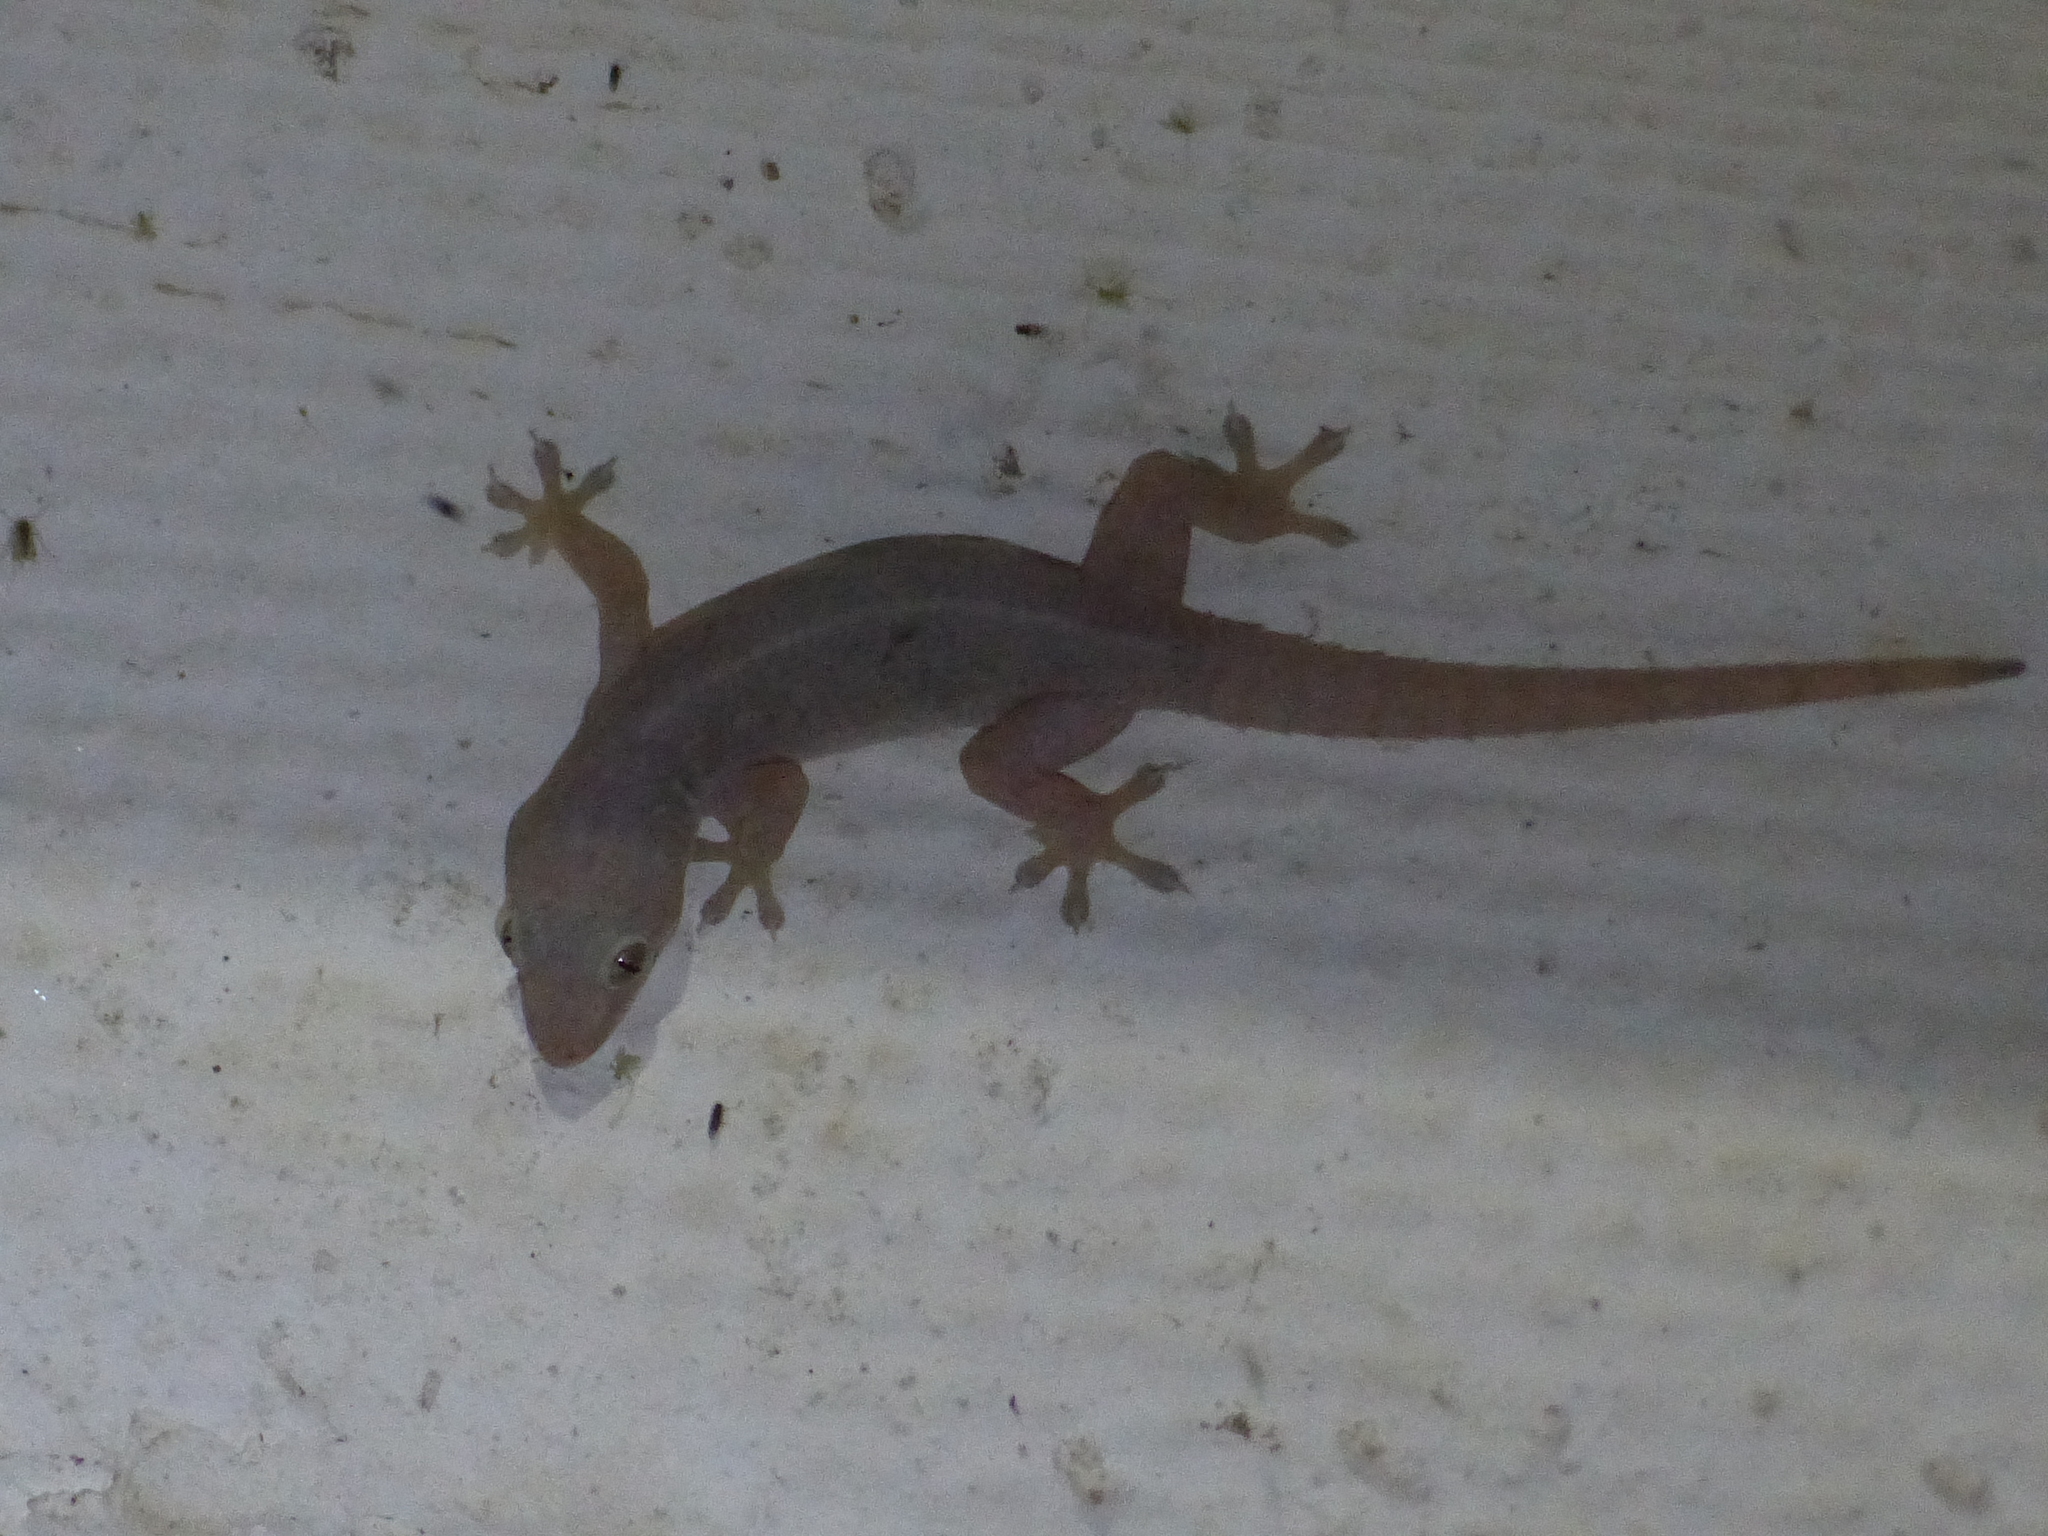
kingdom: Animalia
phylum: Chordata
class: Squamata
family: Gekkonidae
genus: Hemidactylus
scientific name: Hemidactylus frenatus
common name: Common house gecko
